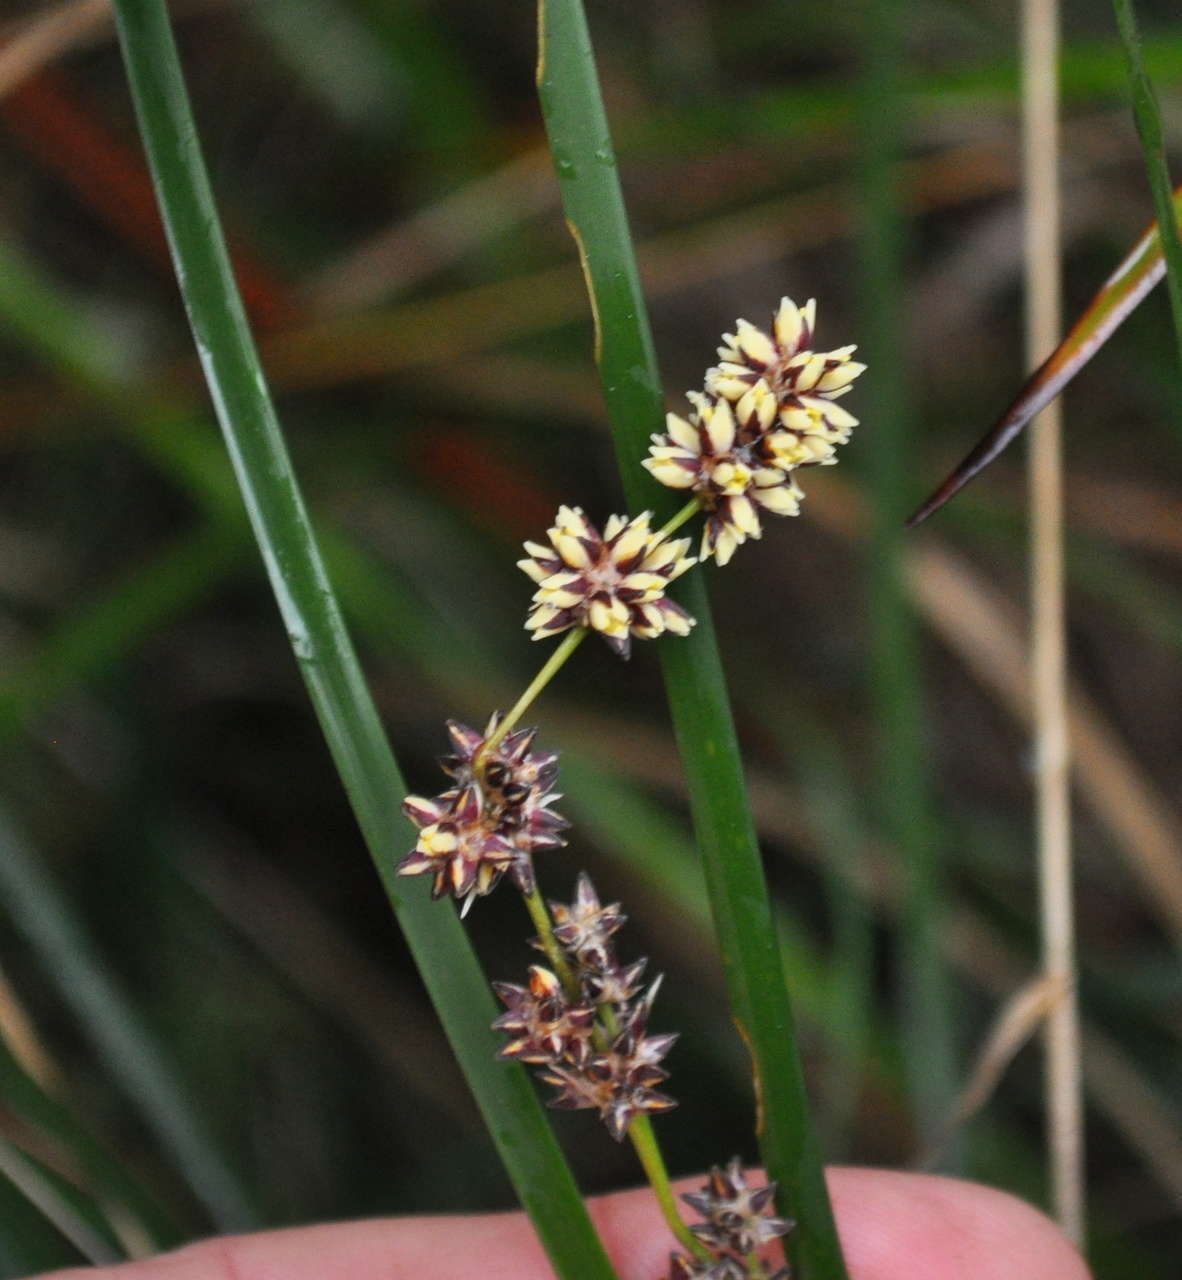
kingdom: Plantae
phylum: Tracheophyta
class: Liliopsida
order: Asparagales
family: Asparagaceae
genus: Lomandra
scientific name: Lomandra longifolia
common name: Longleaf mat-rush
